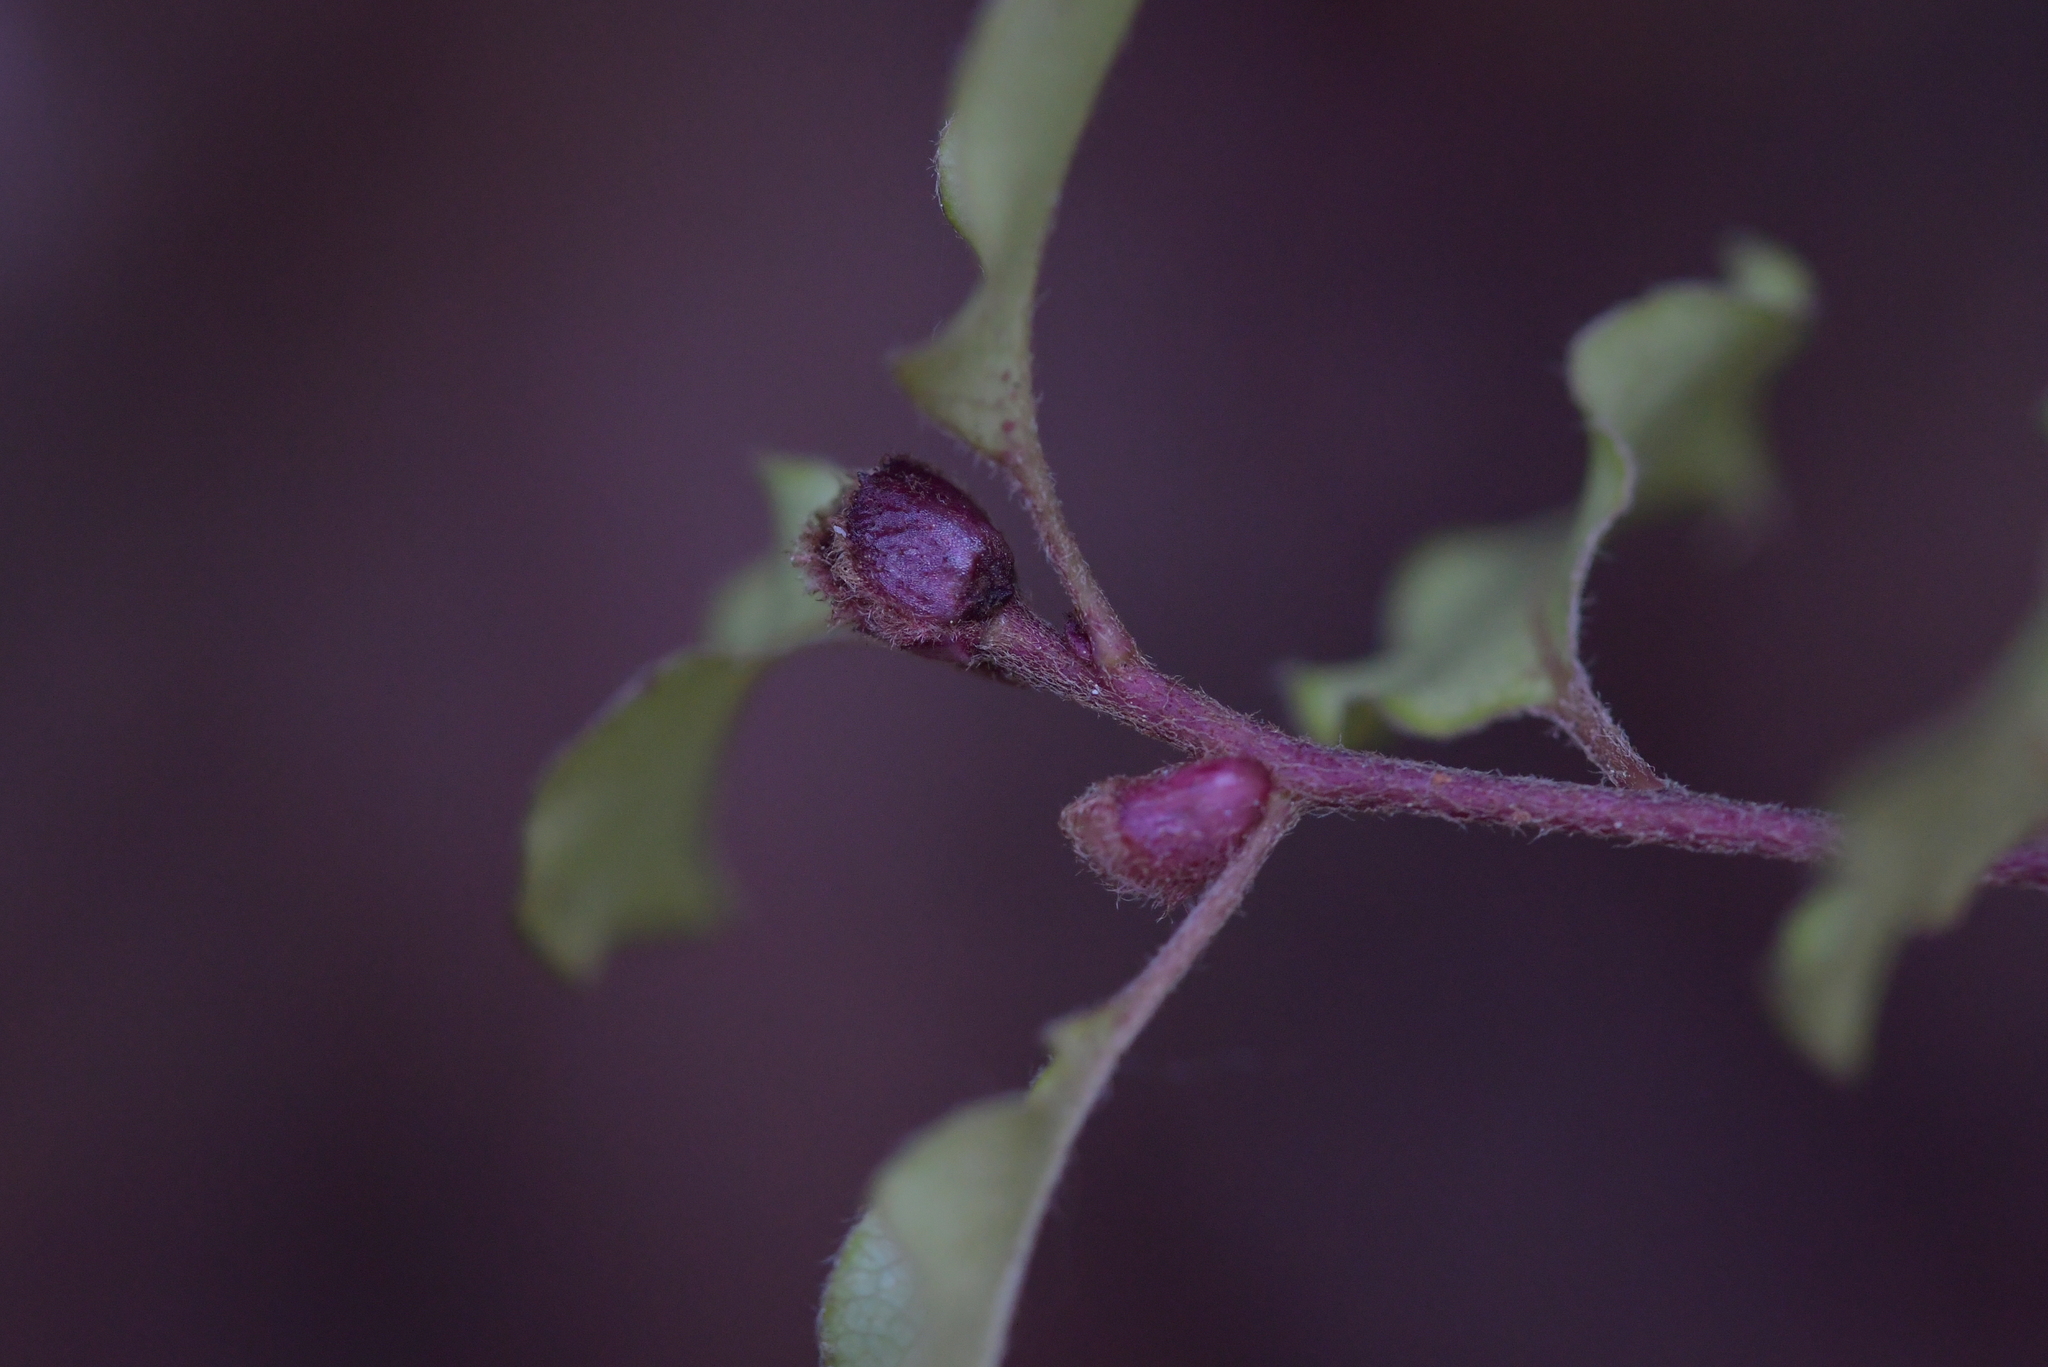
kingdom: Plantae
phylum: Tracheophyta
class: Magnoliopsida
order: Apiales
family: Pittosporaceae
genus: Pittosporum
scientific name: Pittosporum tenuifolium
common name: Kohuhu
